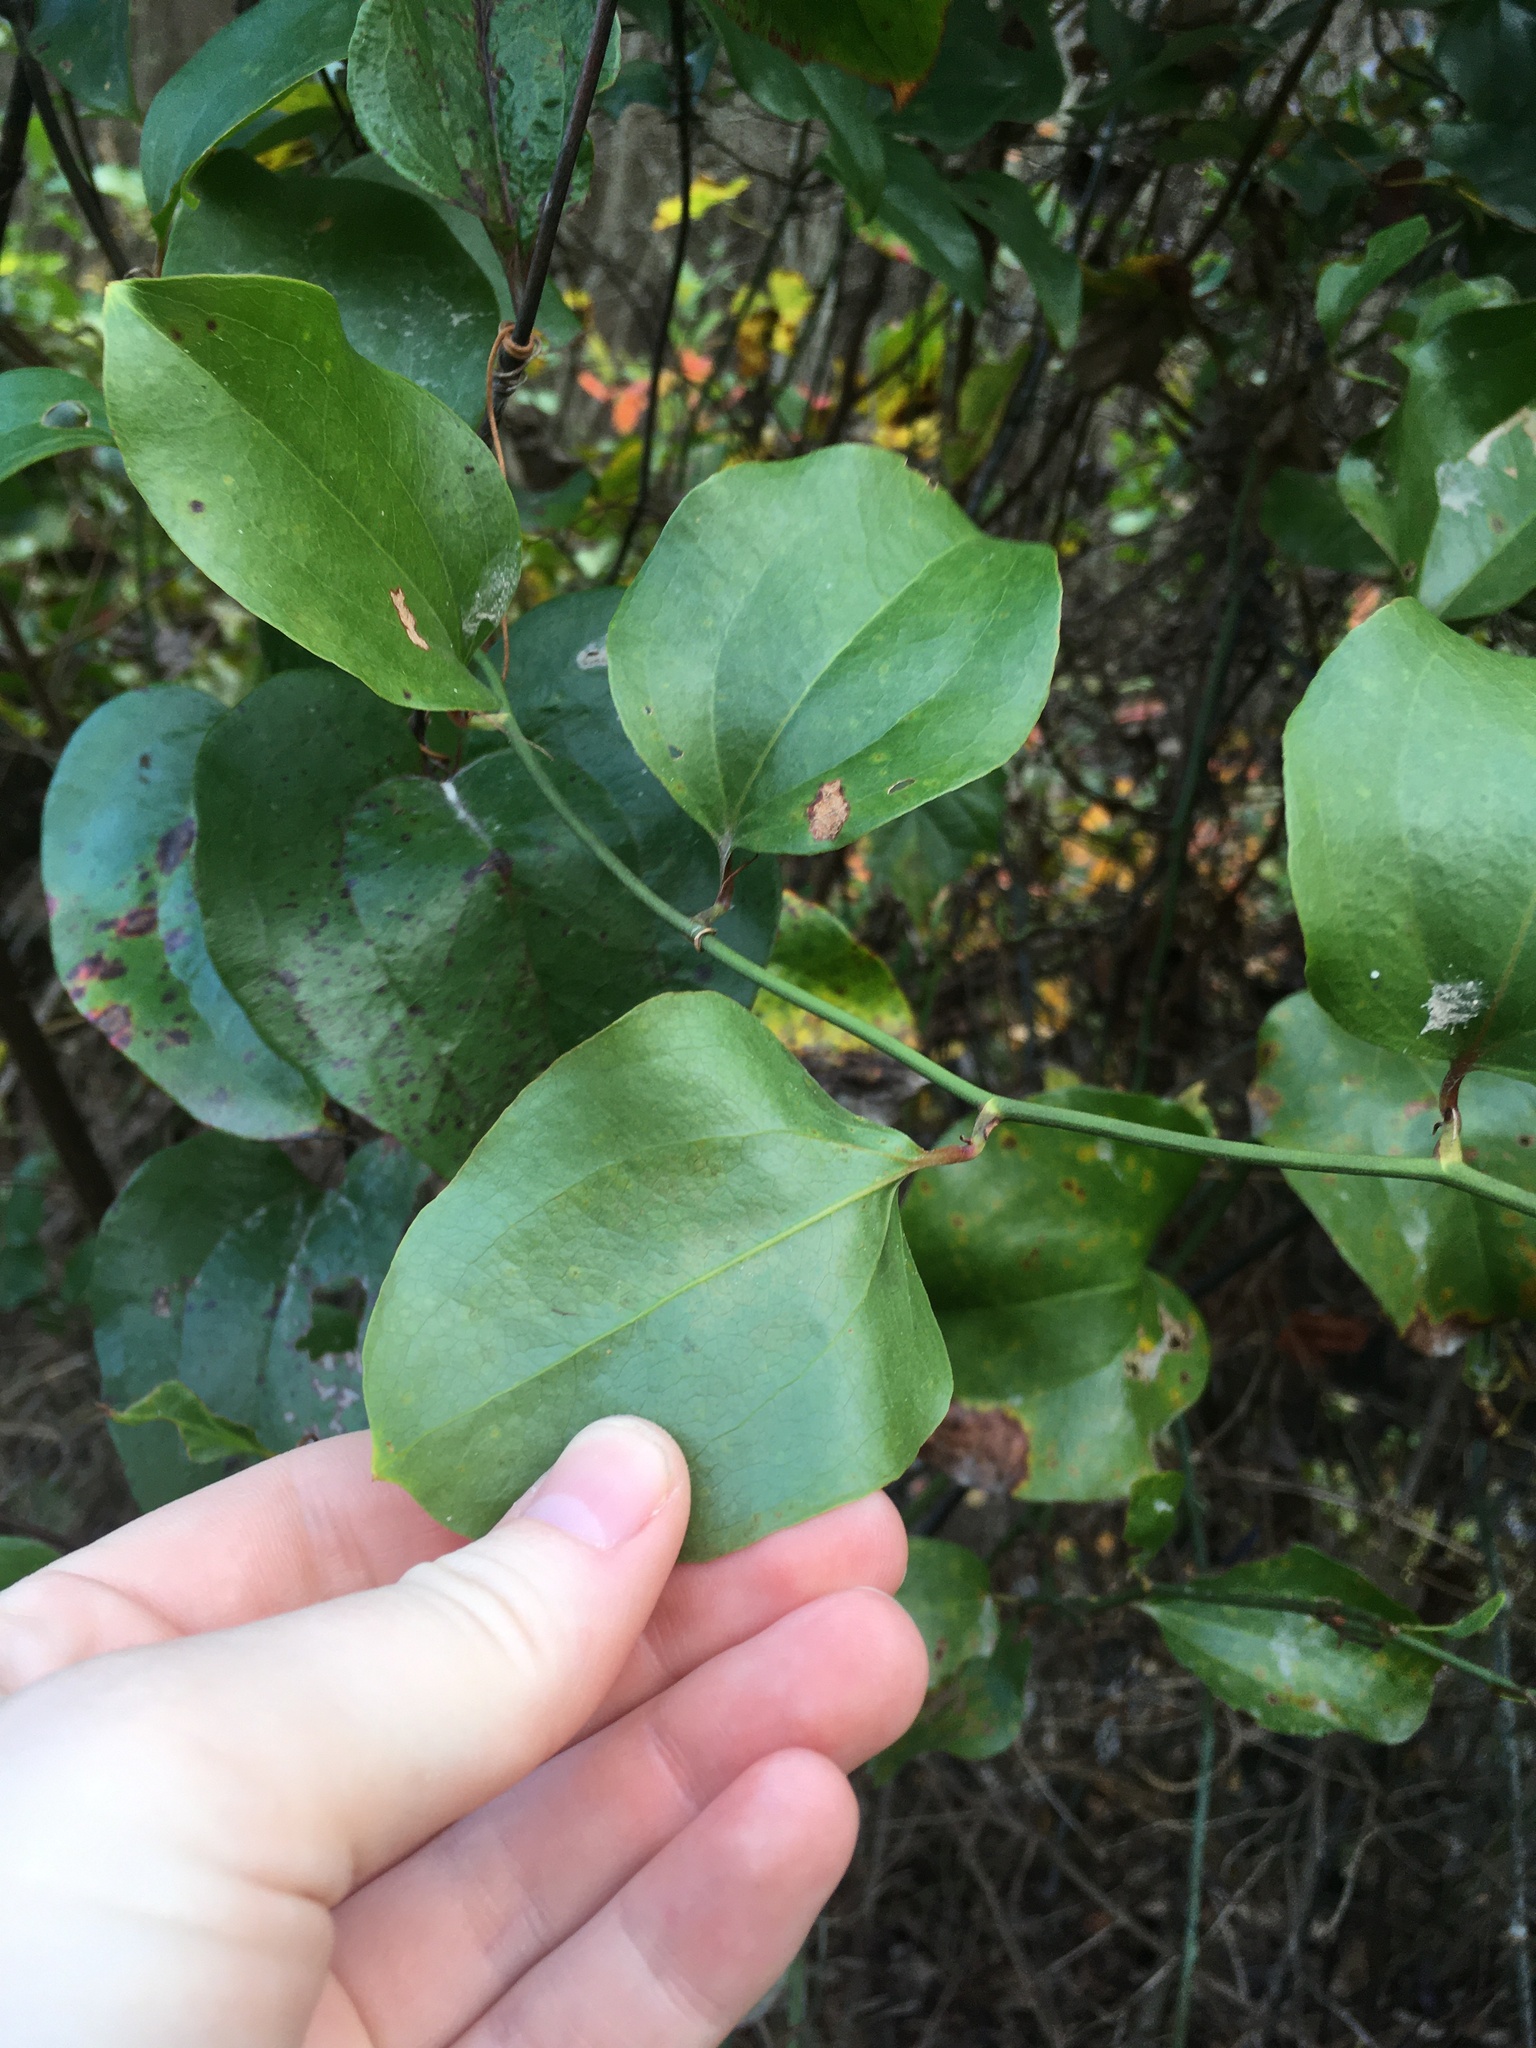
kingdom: Plantae
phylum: Tracheophyta
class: Liliopsida
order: Liliales
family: Smilacaceae
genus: Smilax
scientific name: Smilax rotundifolia
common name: Bullbriar
